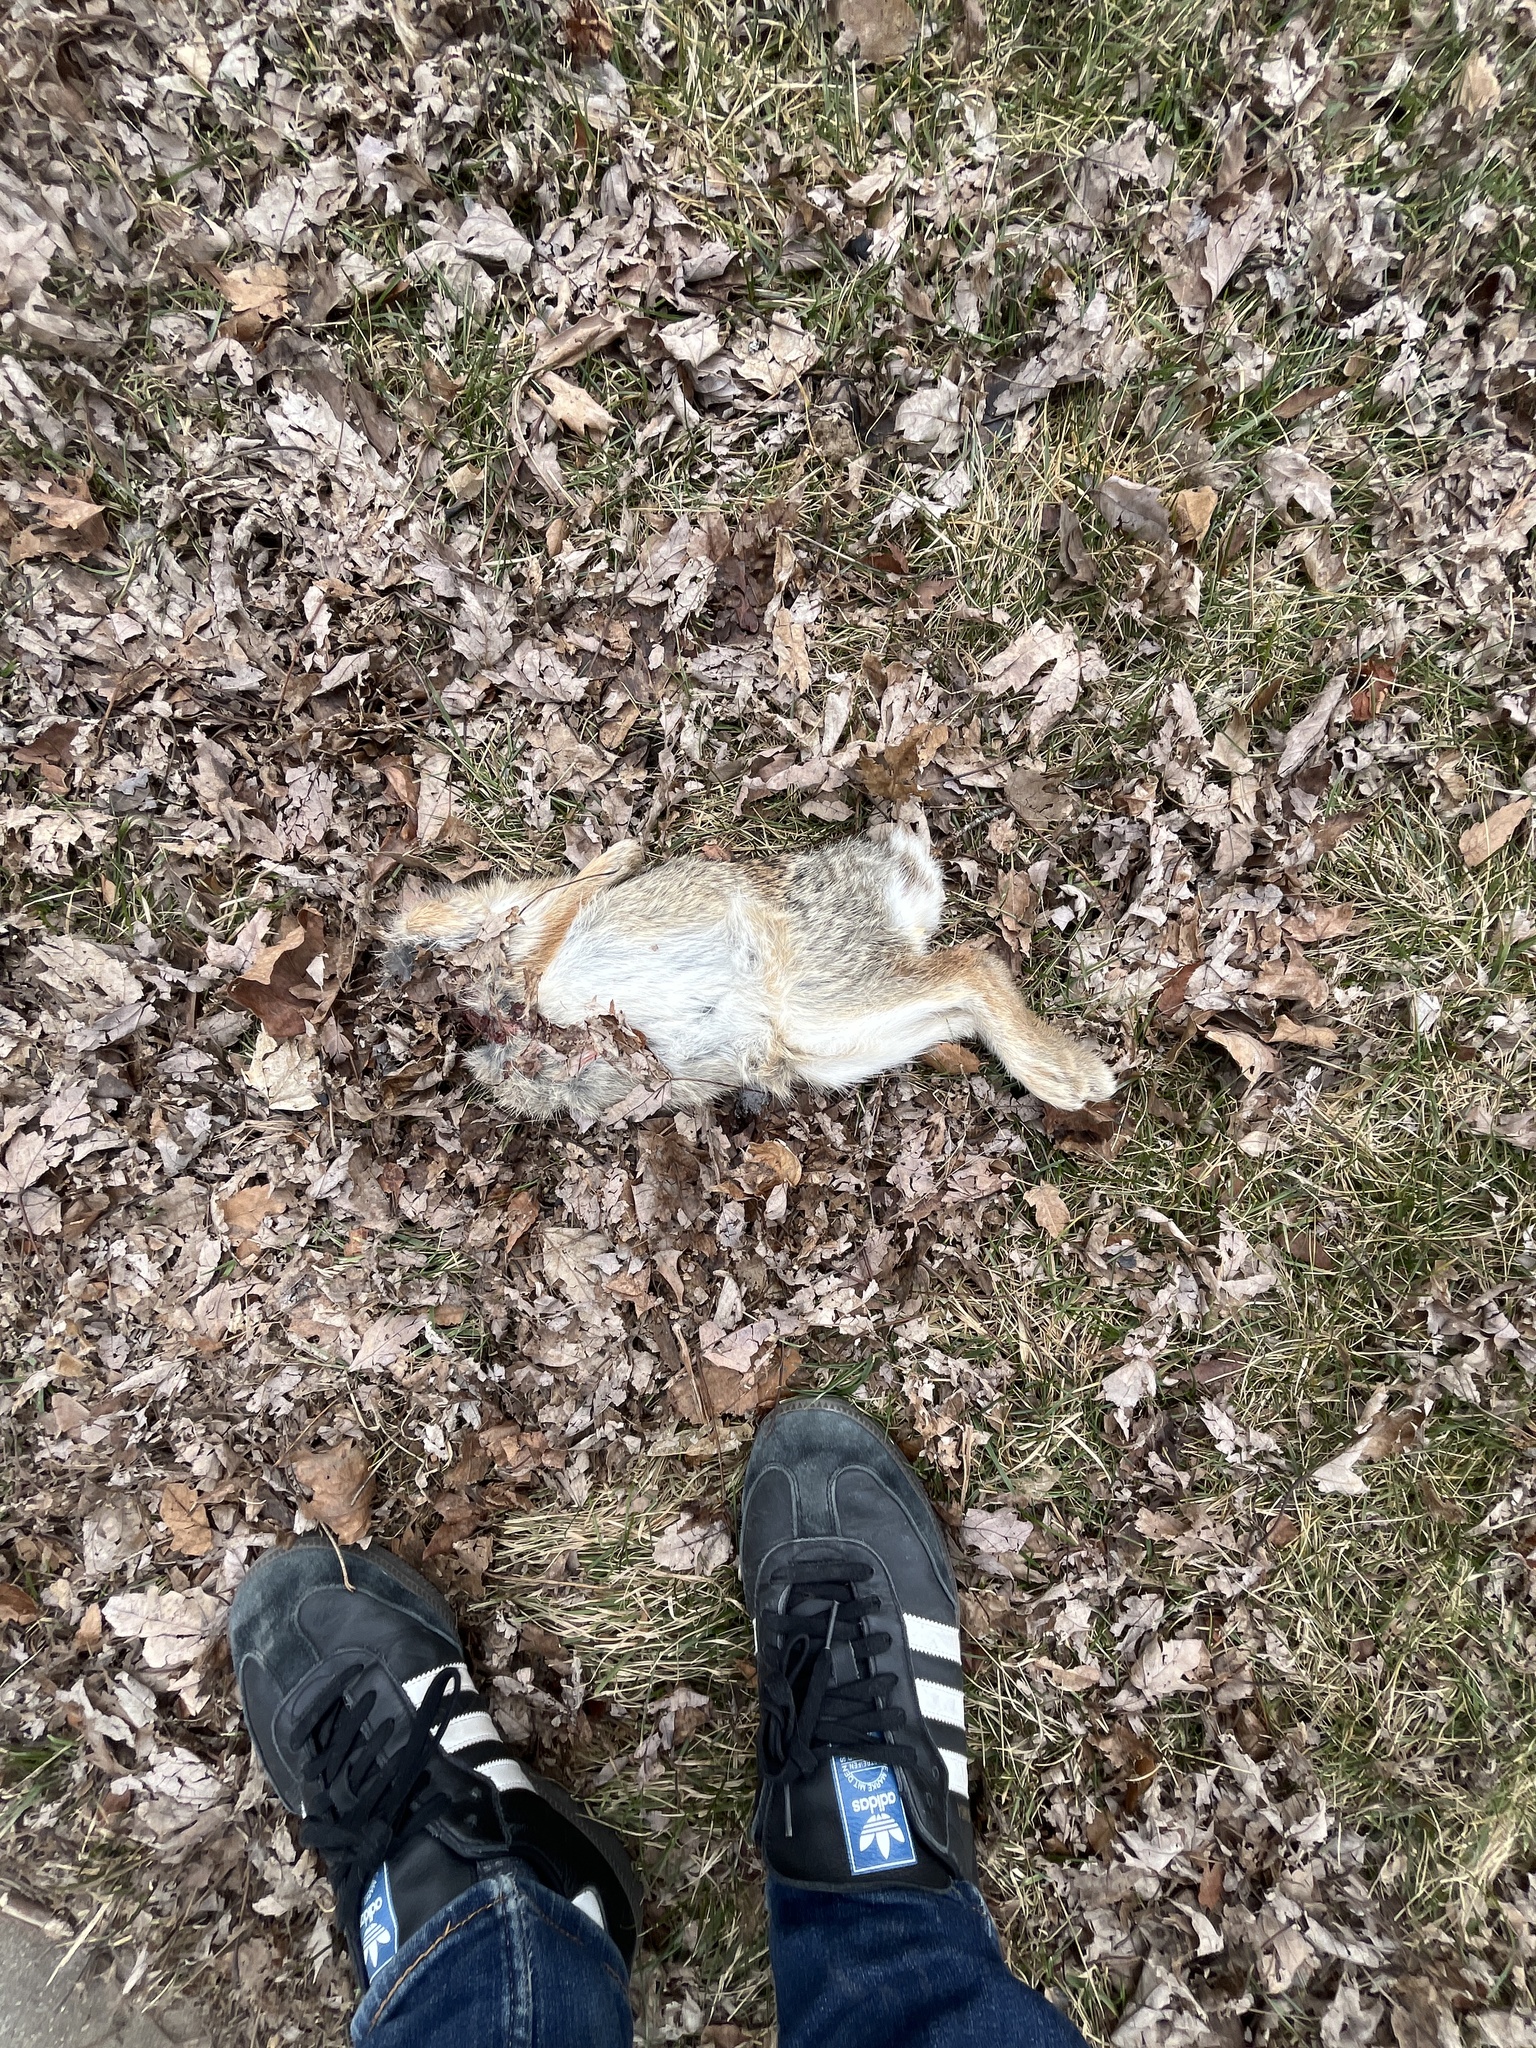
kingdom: Animalia
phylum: Chordata
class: Mammalia
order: Lagomorpha
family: Leporidae
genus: Sylvilagus
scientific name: Sylvilagus floridanus
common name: Eastern cottontail
